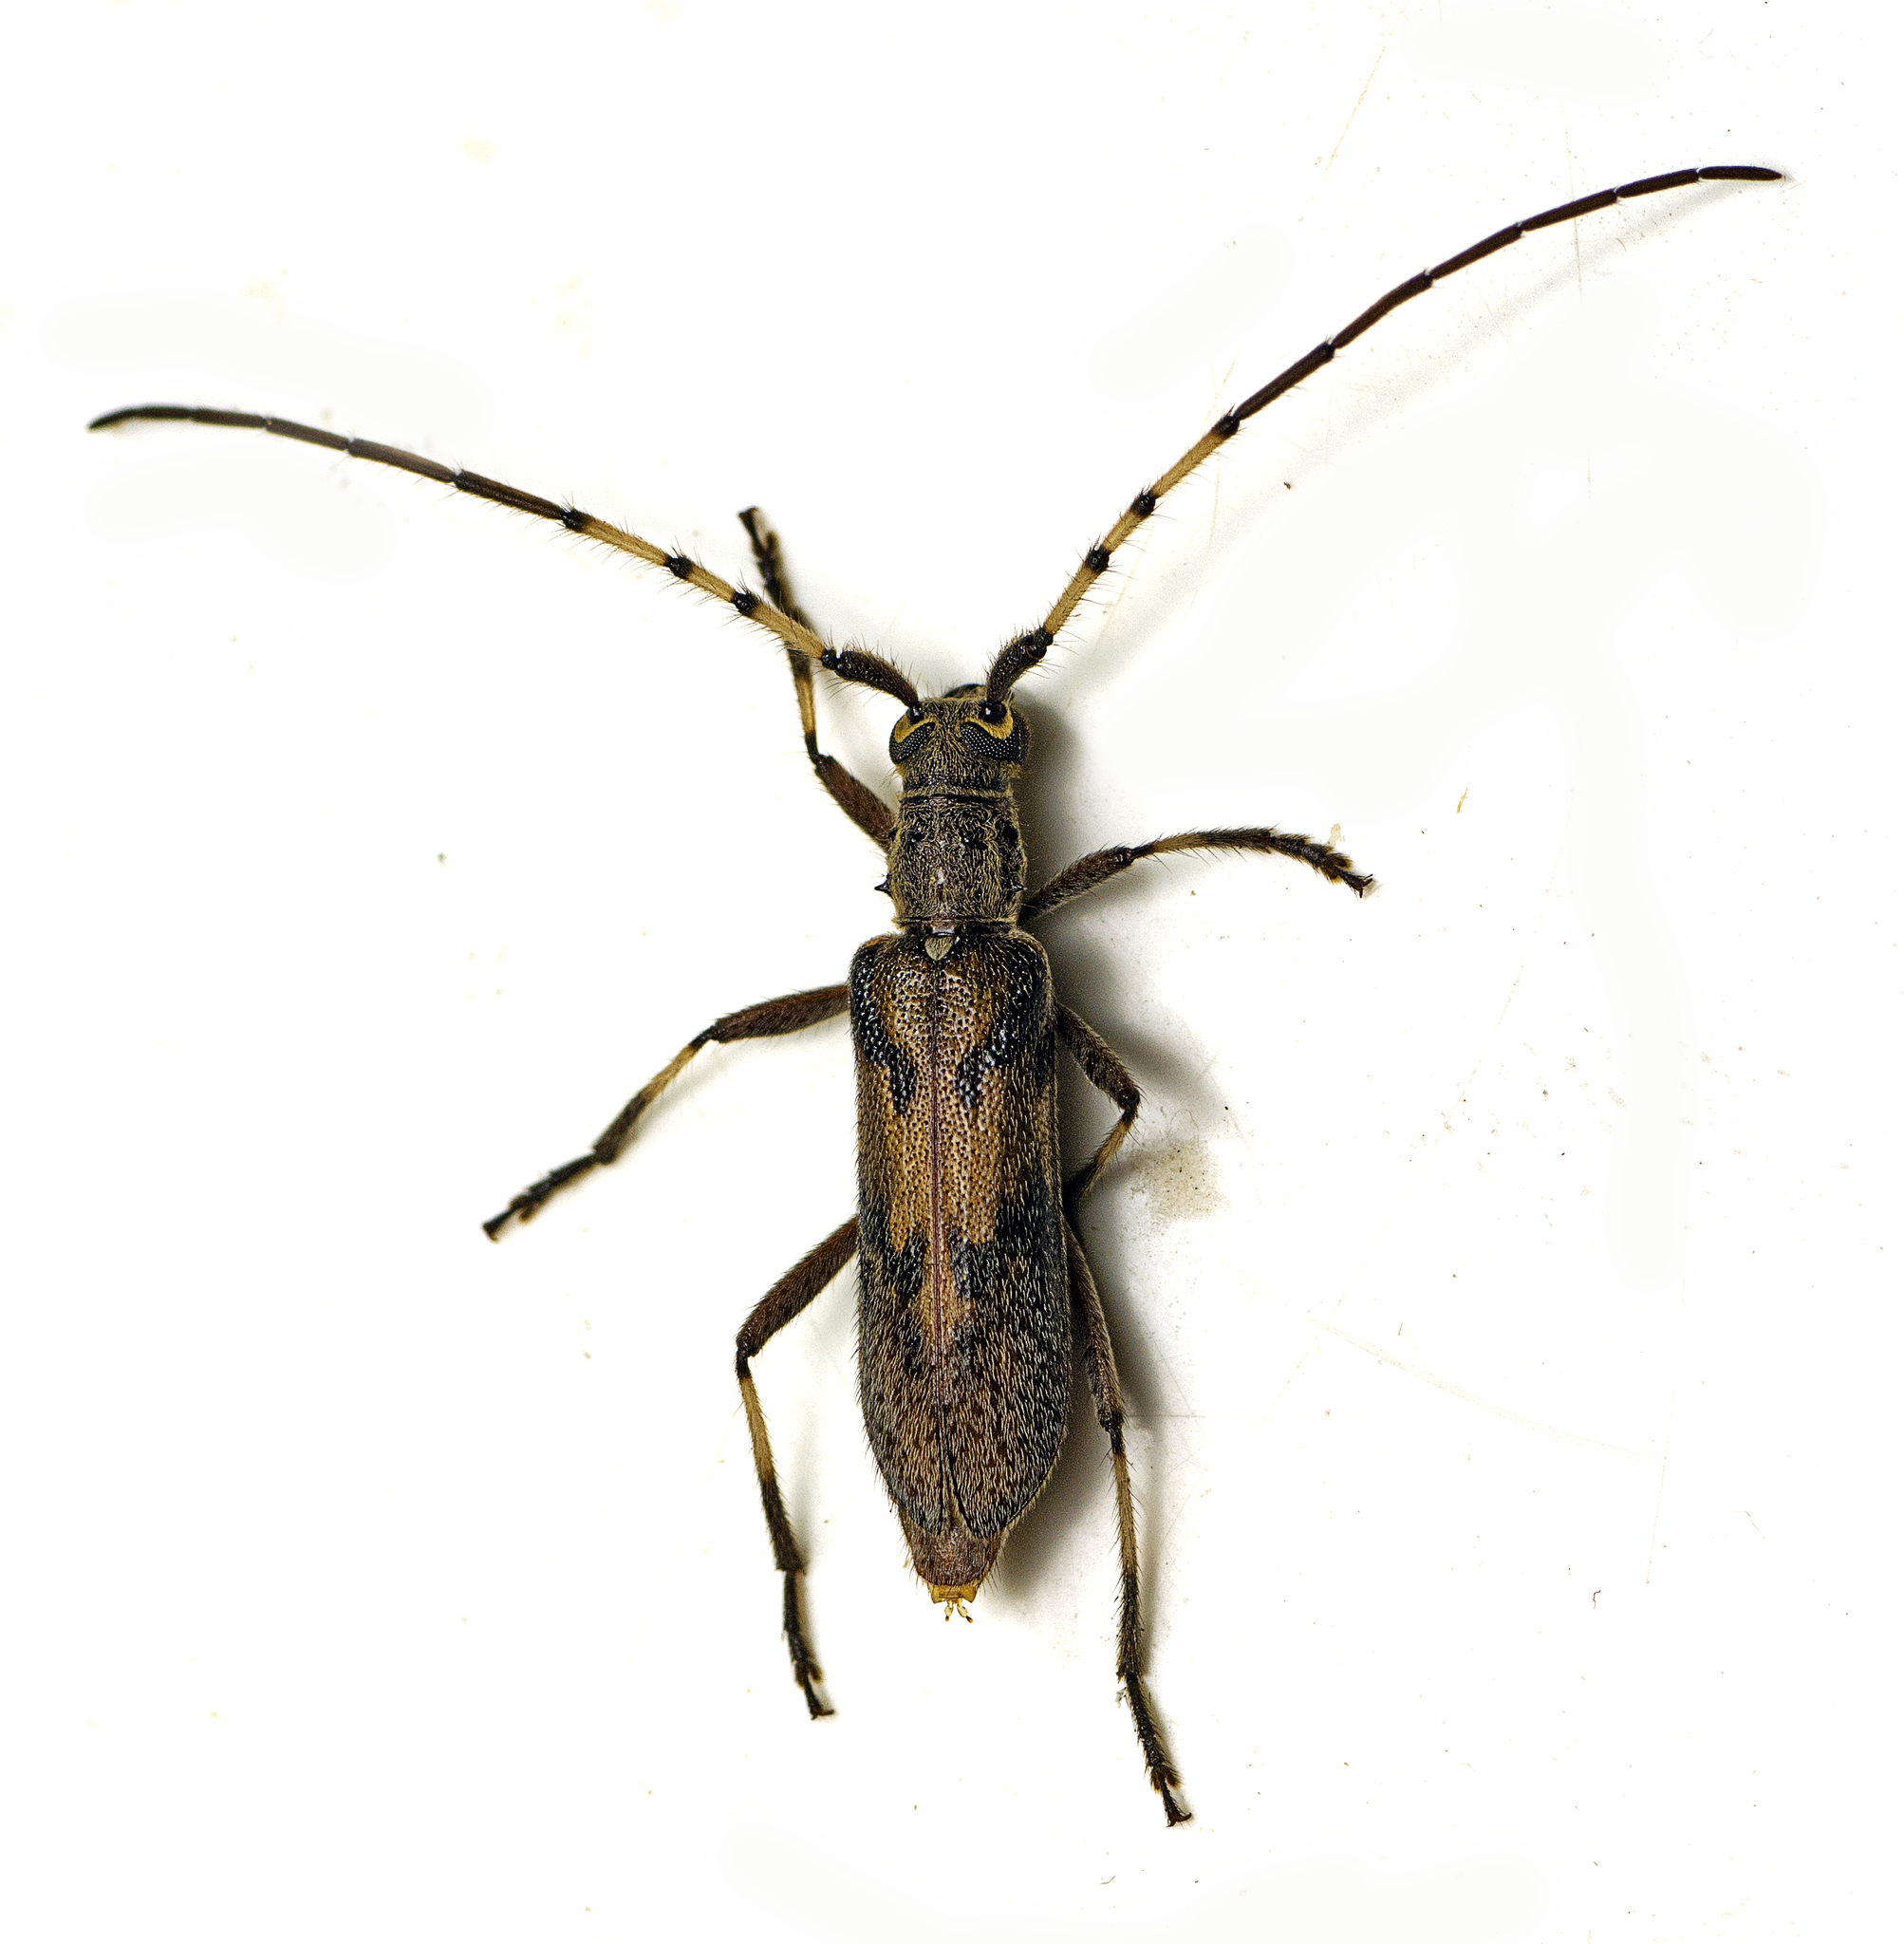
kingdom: Animalia
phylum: Arthropoda
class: Insecta
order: Coleoptera
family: Cerambycidae
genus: Didymocantha
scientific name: Didymocantha obliqua
